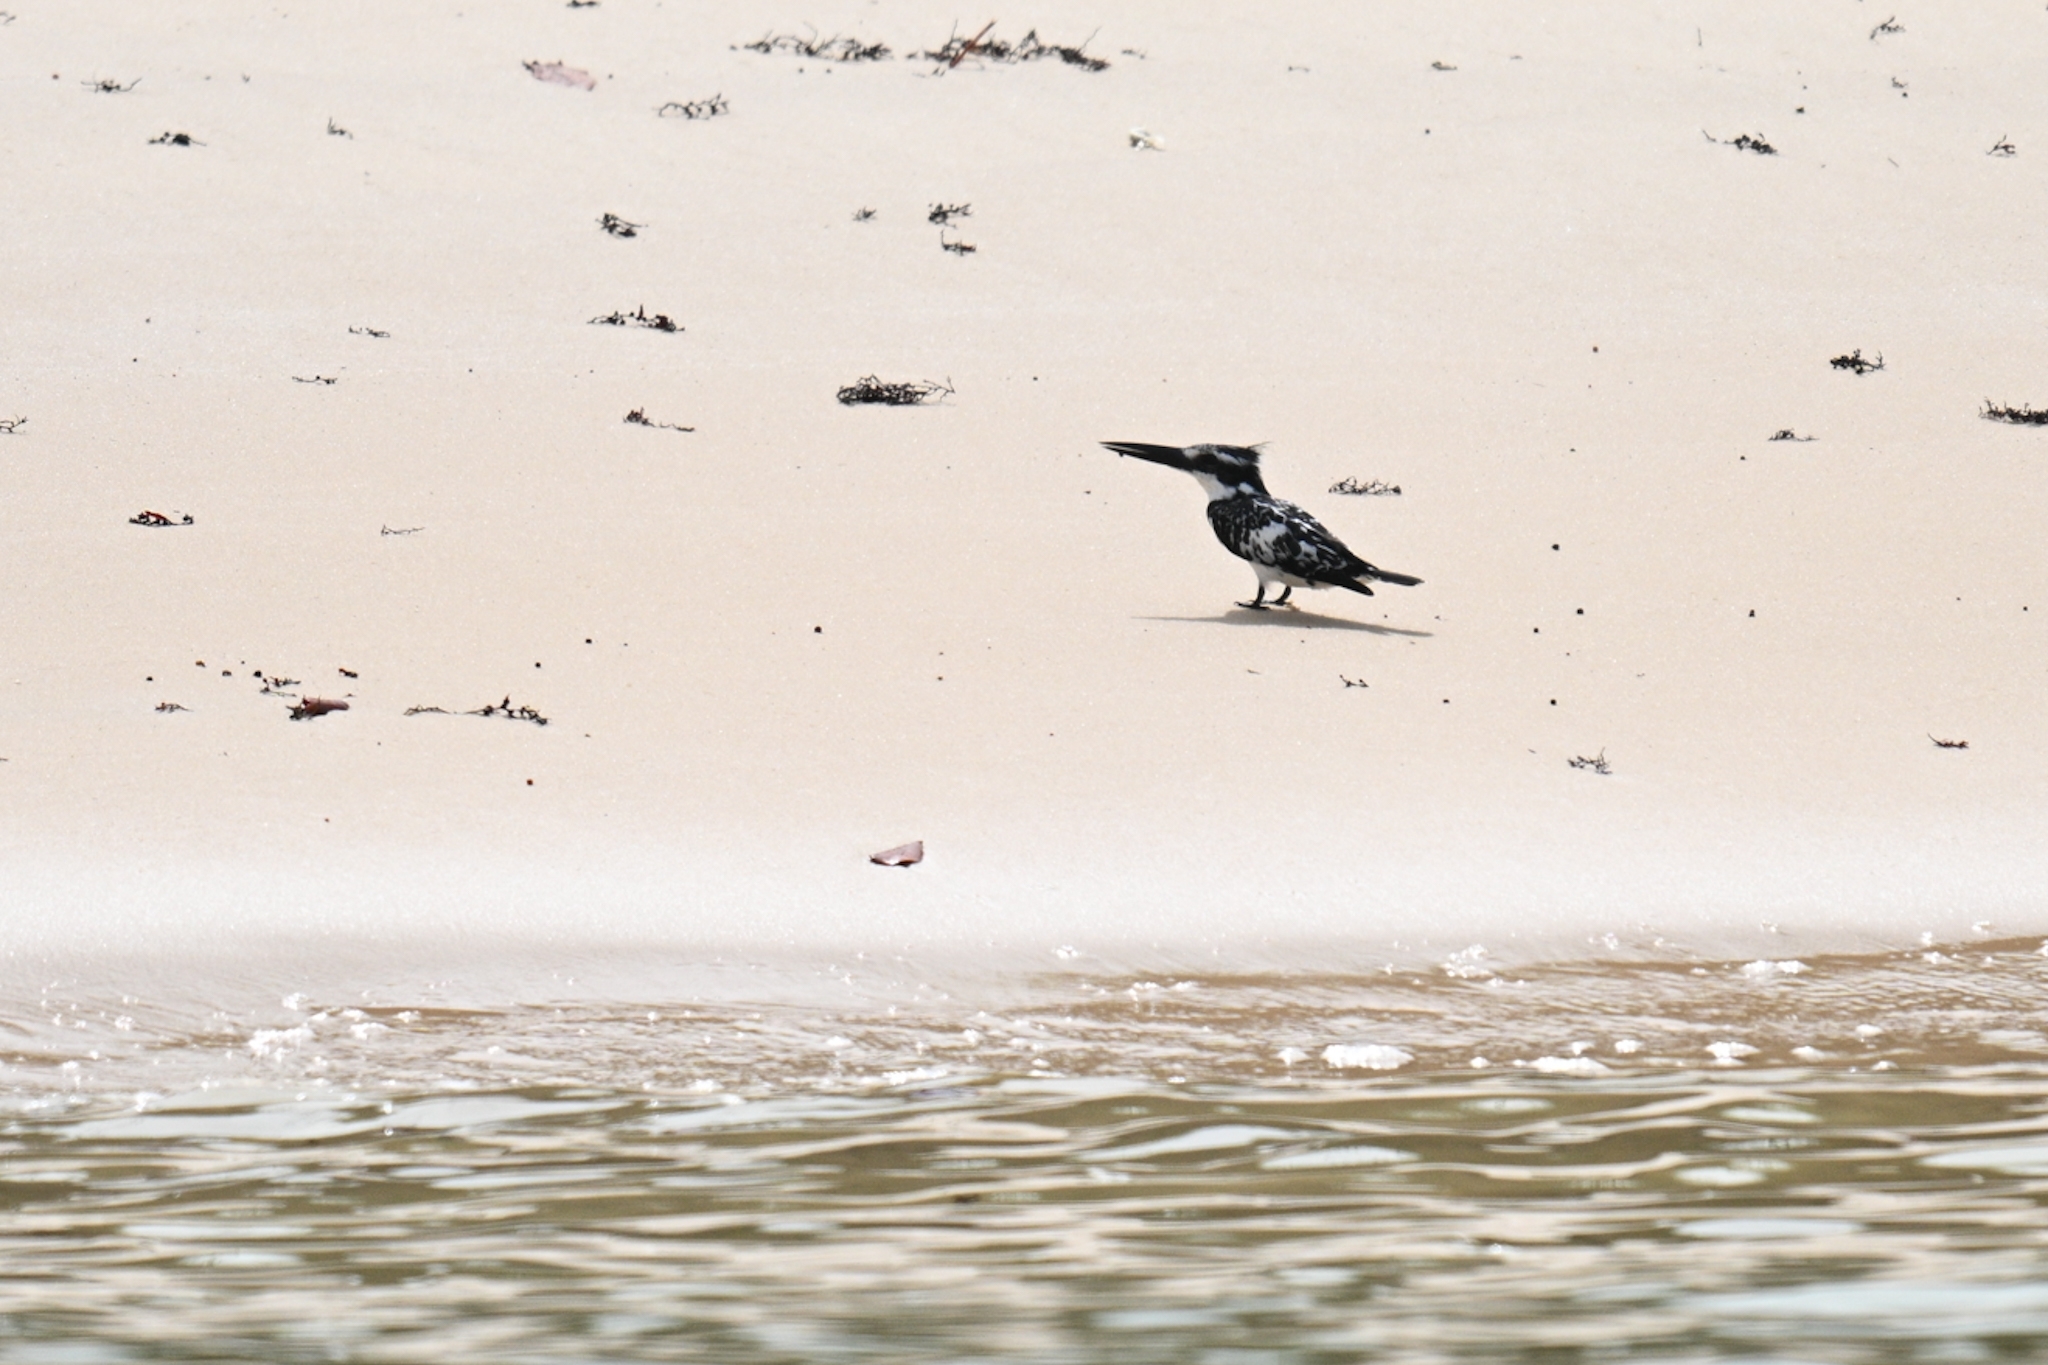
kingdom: Animalia
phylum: Chordata
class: Aves
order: Coraciiformes
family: Alcedinidae
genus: Ceryle
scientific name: Ceryle rudis
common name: Pied kingfisher
